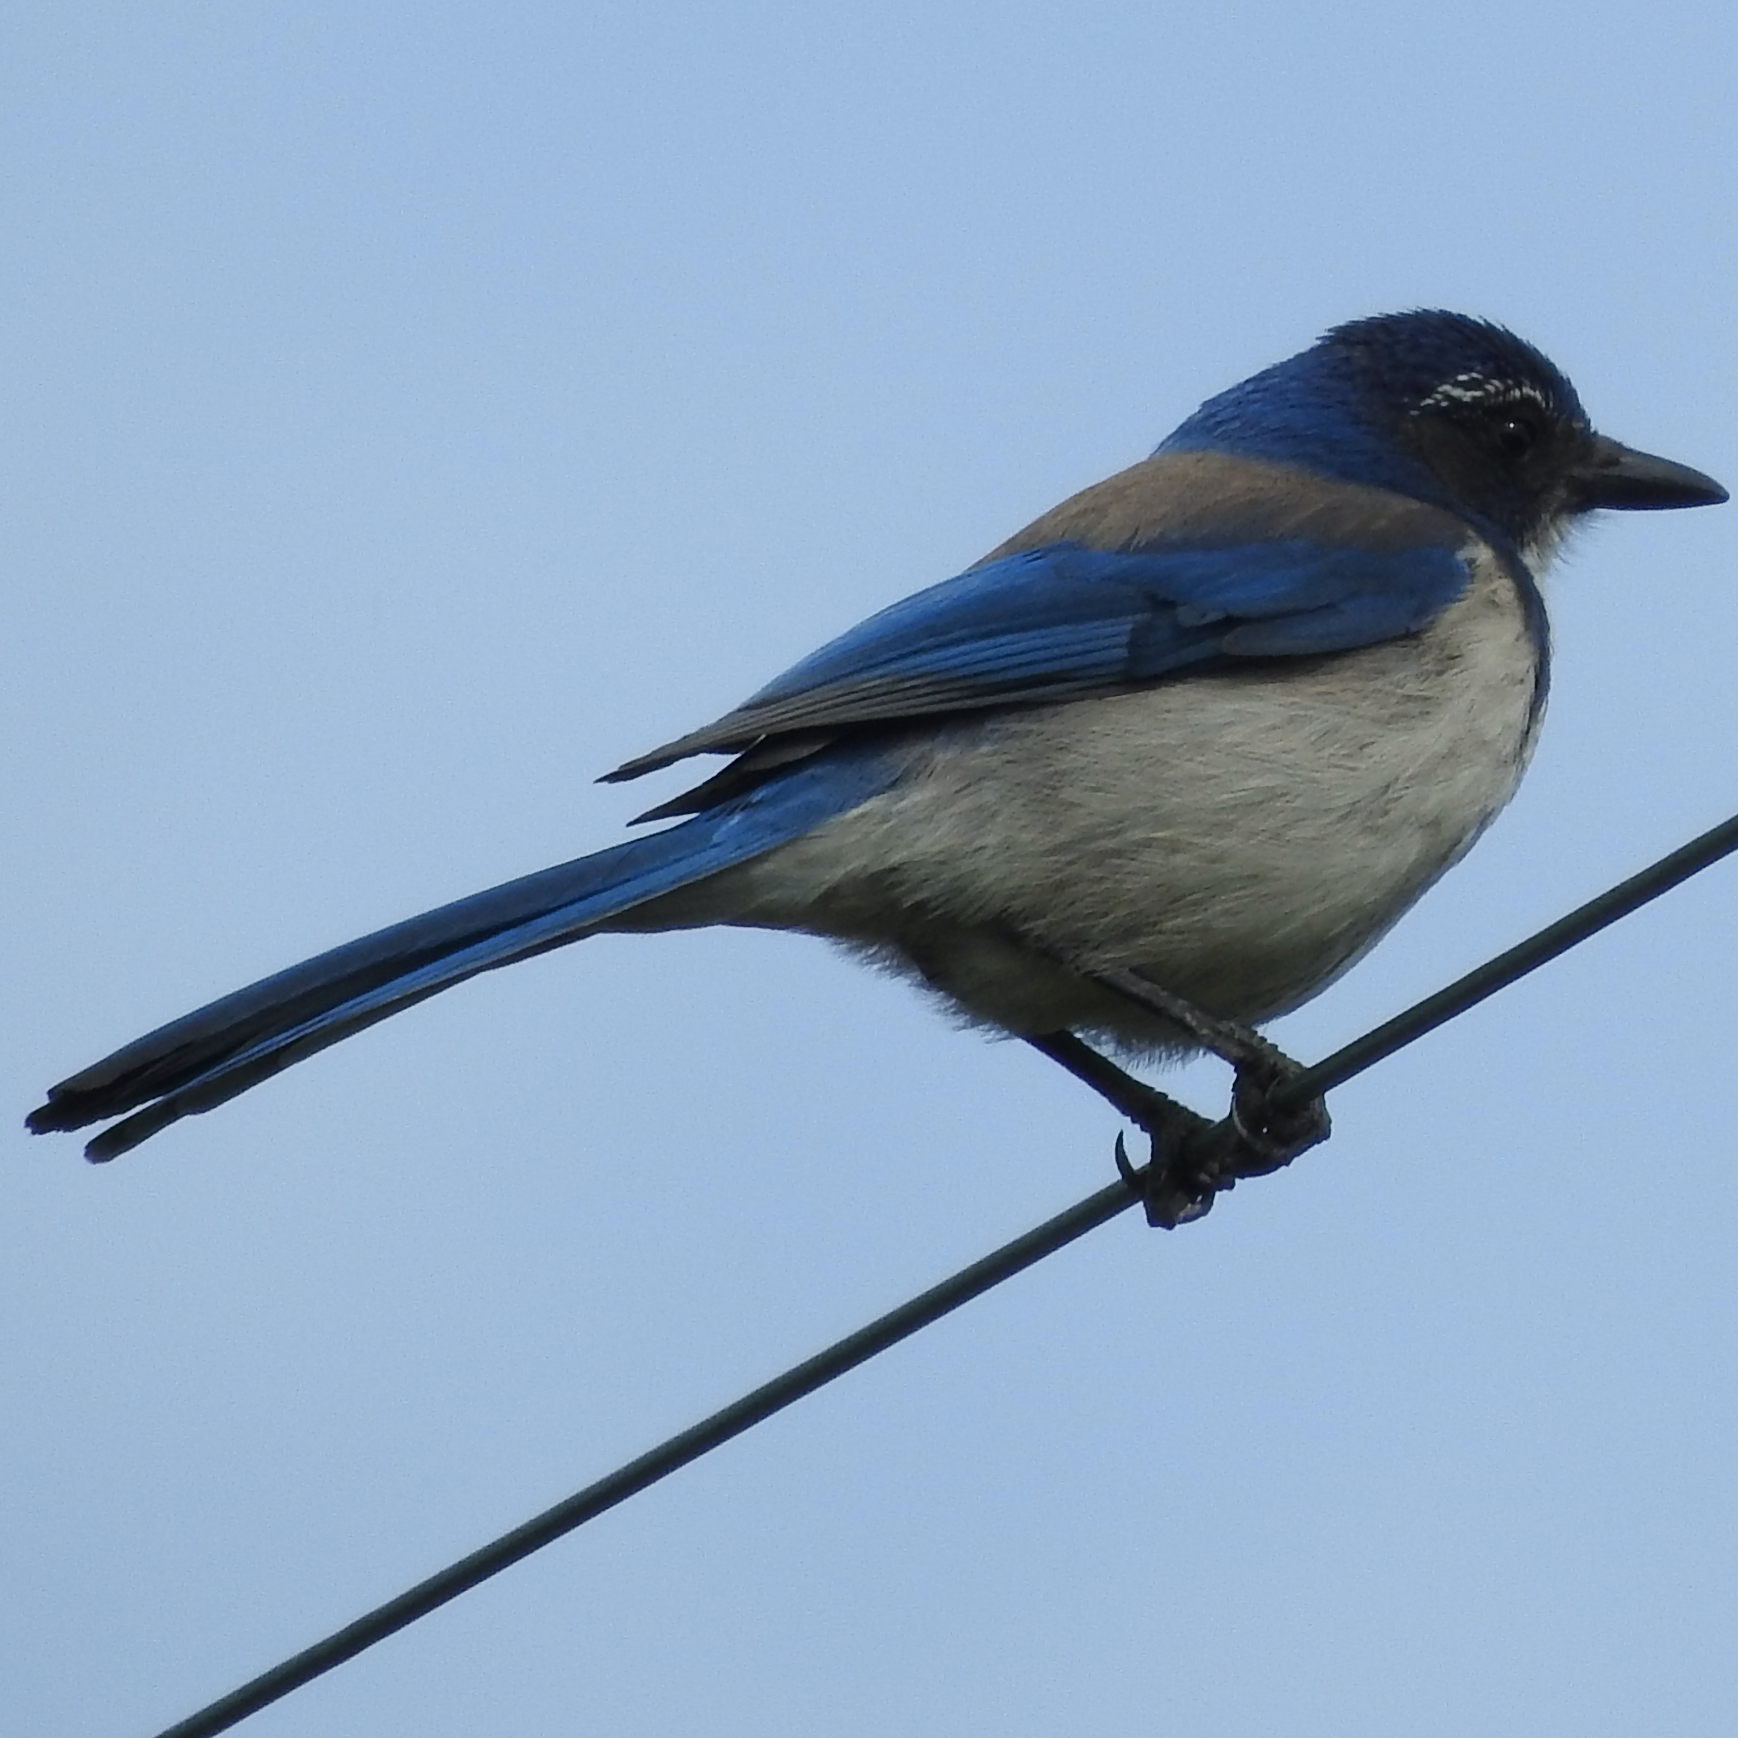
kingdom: Animalia
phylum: Chordata
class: Aves
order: Passeriformes
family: Corvidae
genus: Aphelocoma
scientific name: Aphelocoma californica
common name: California scrub-jay
